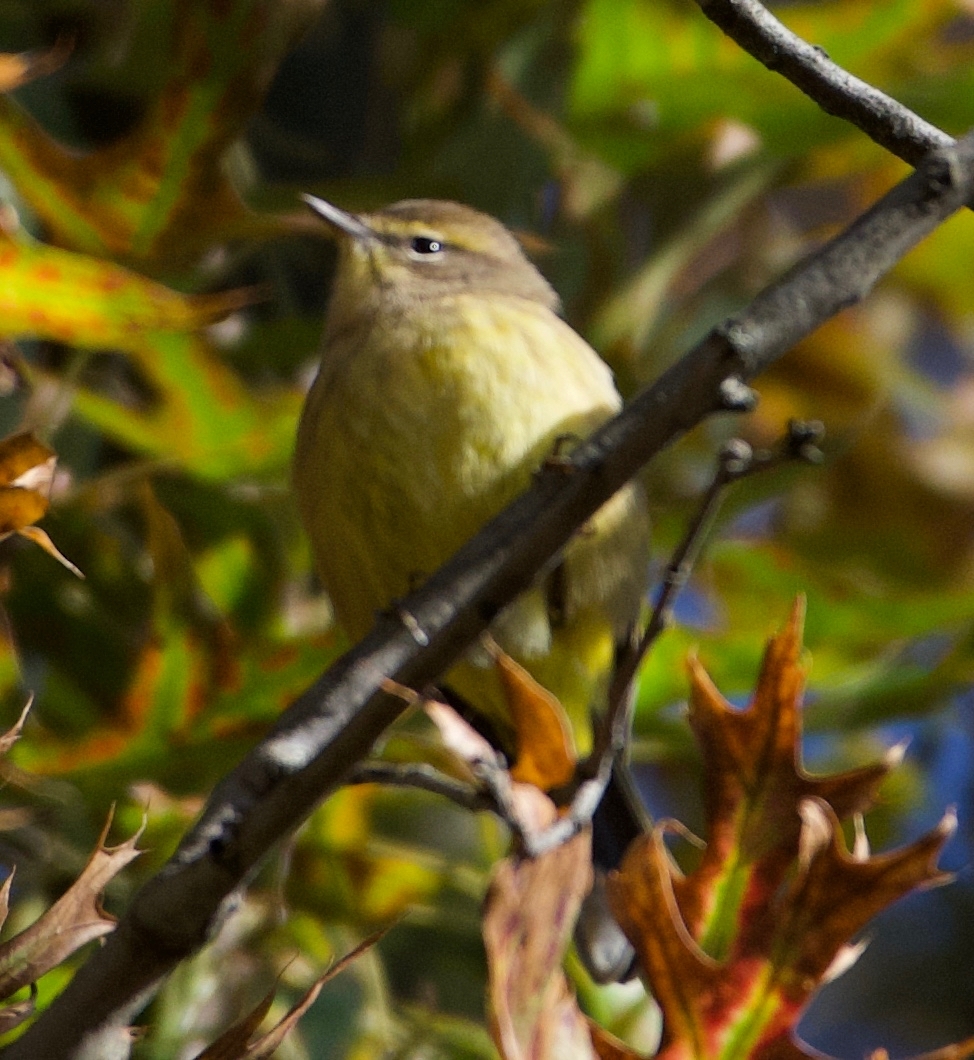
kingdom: Animalia
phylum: Chordata
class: Aves
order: Passeriformes
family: Parulidae
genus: Setophaga
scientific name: Setophaga palmarum
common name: Palm warbler
